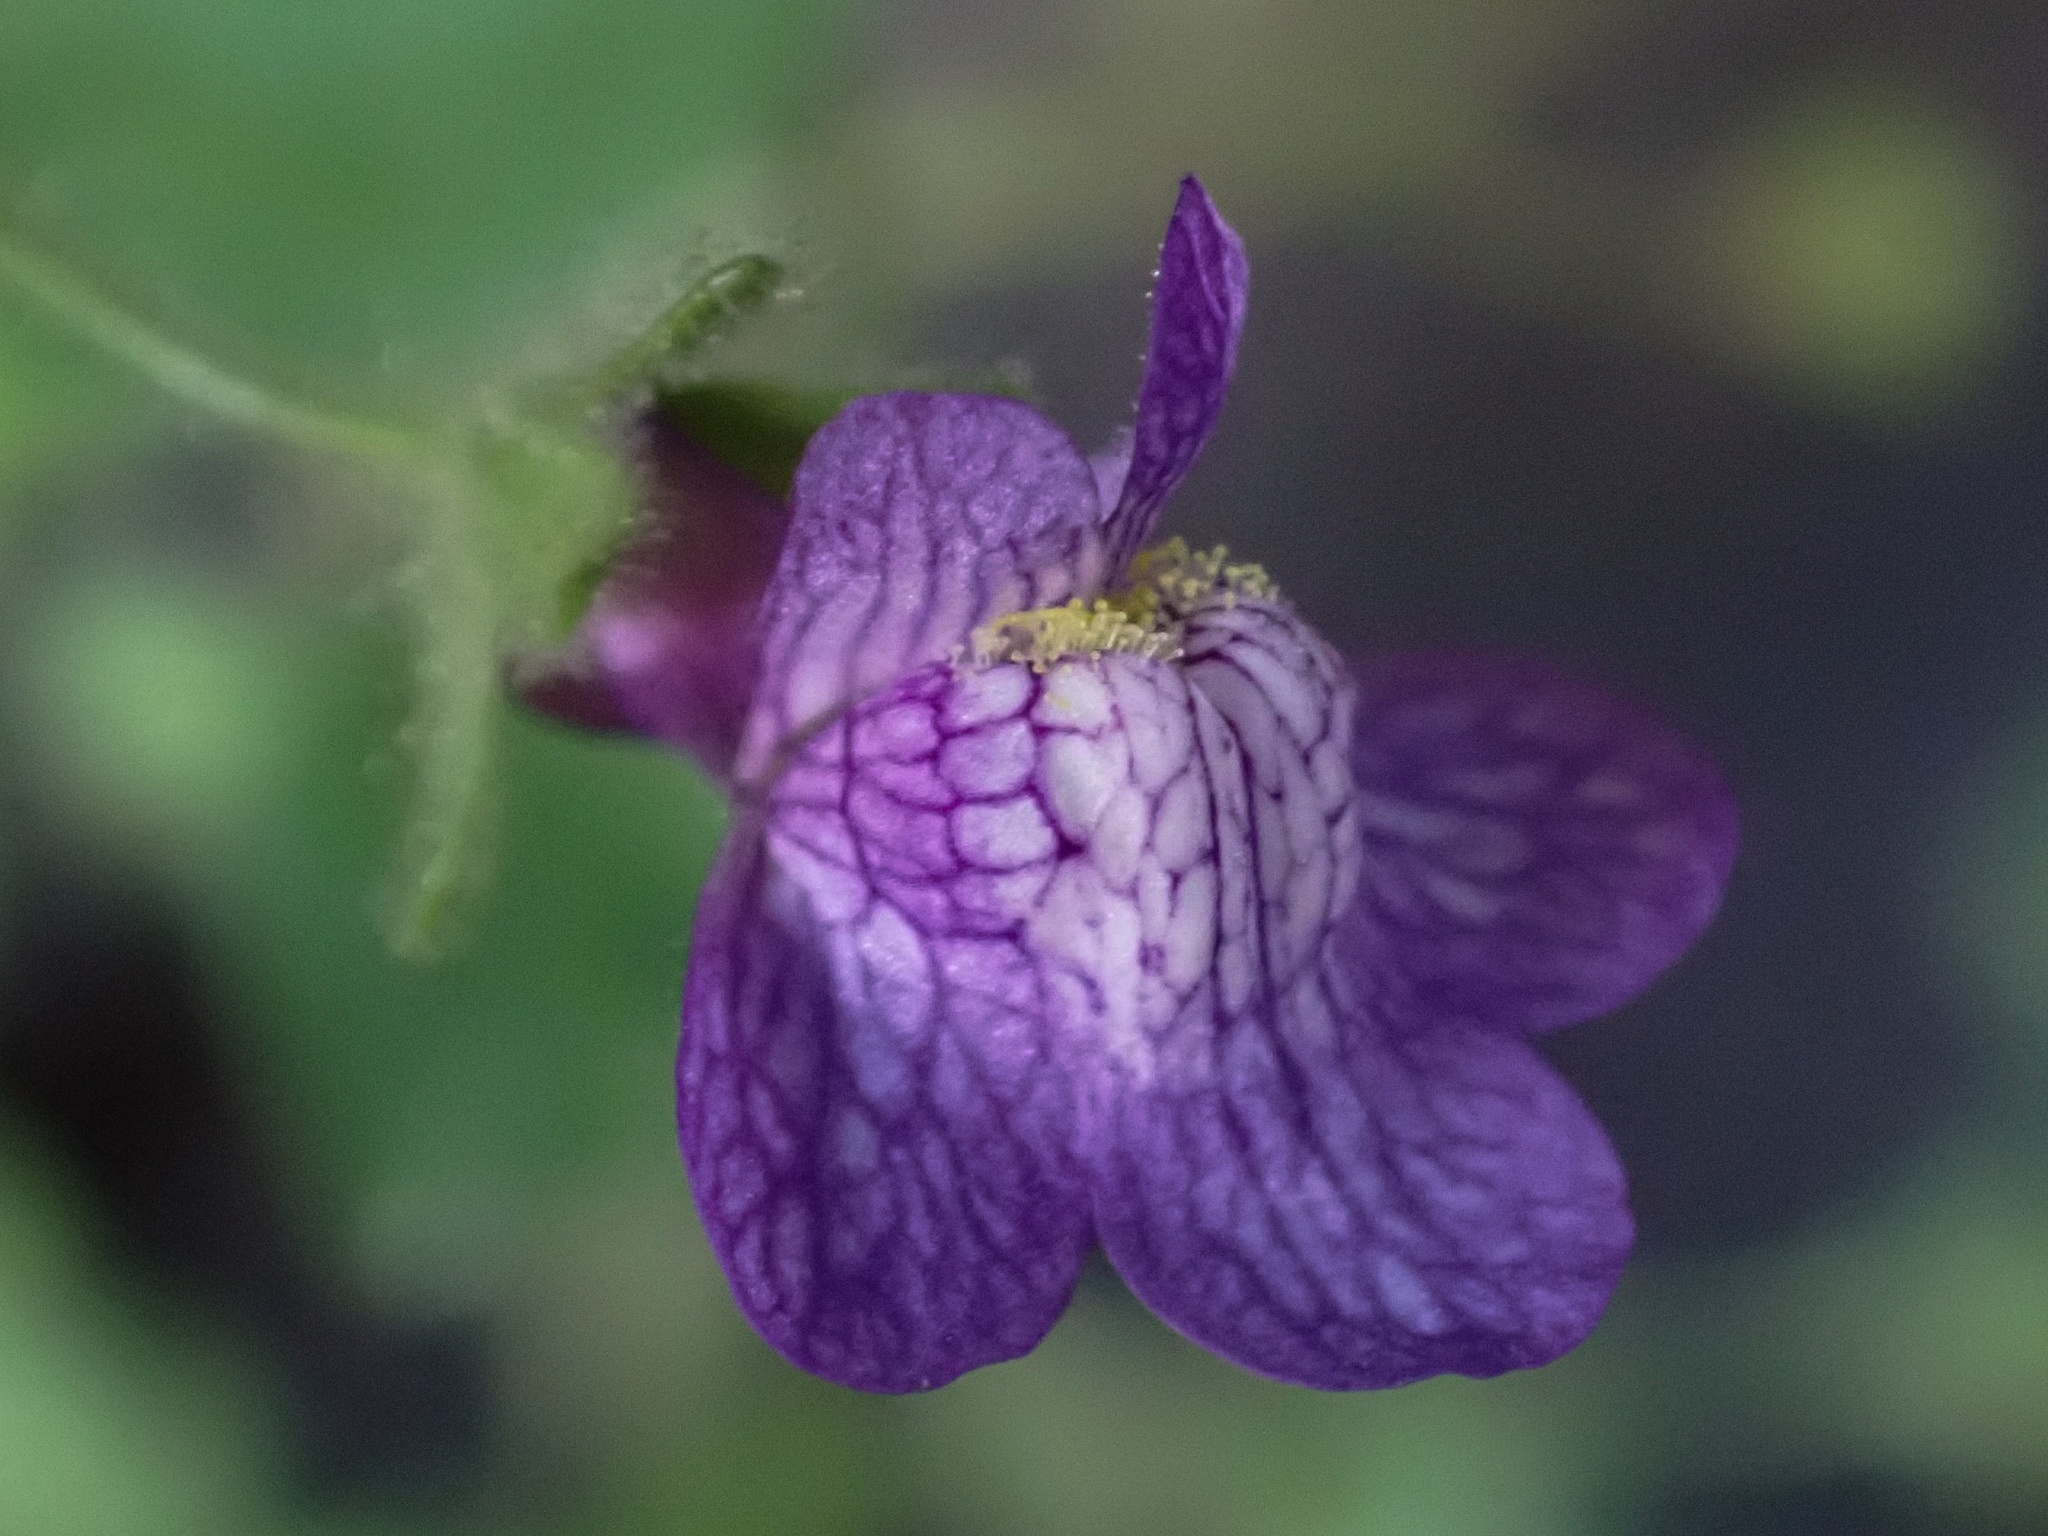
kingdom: Plantae
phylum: Tracheophyta
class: Magnoliopsida
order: Lamiales
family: Plantaginaceae
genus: Sairocarpus
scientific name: Sairocarpus nuttallianus
